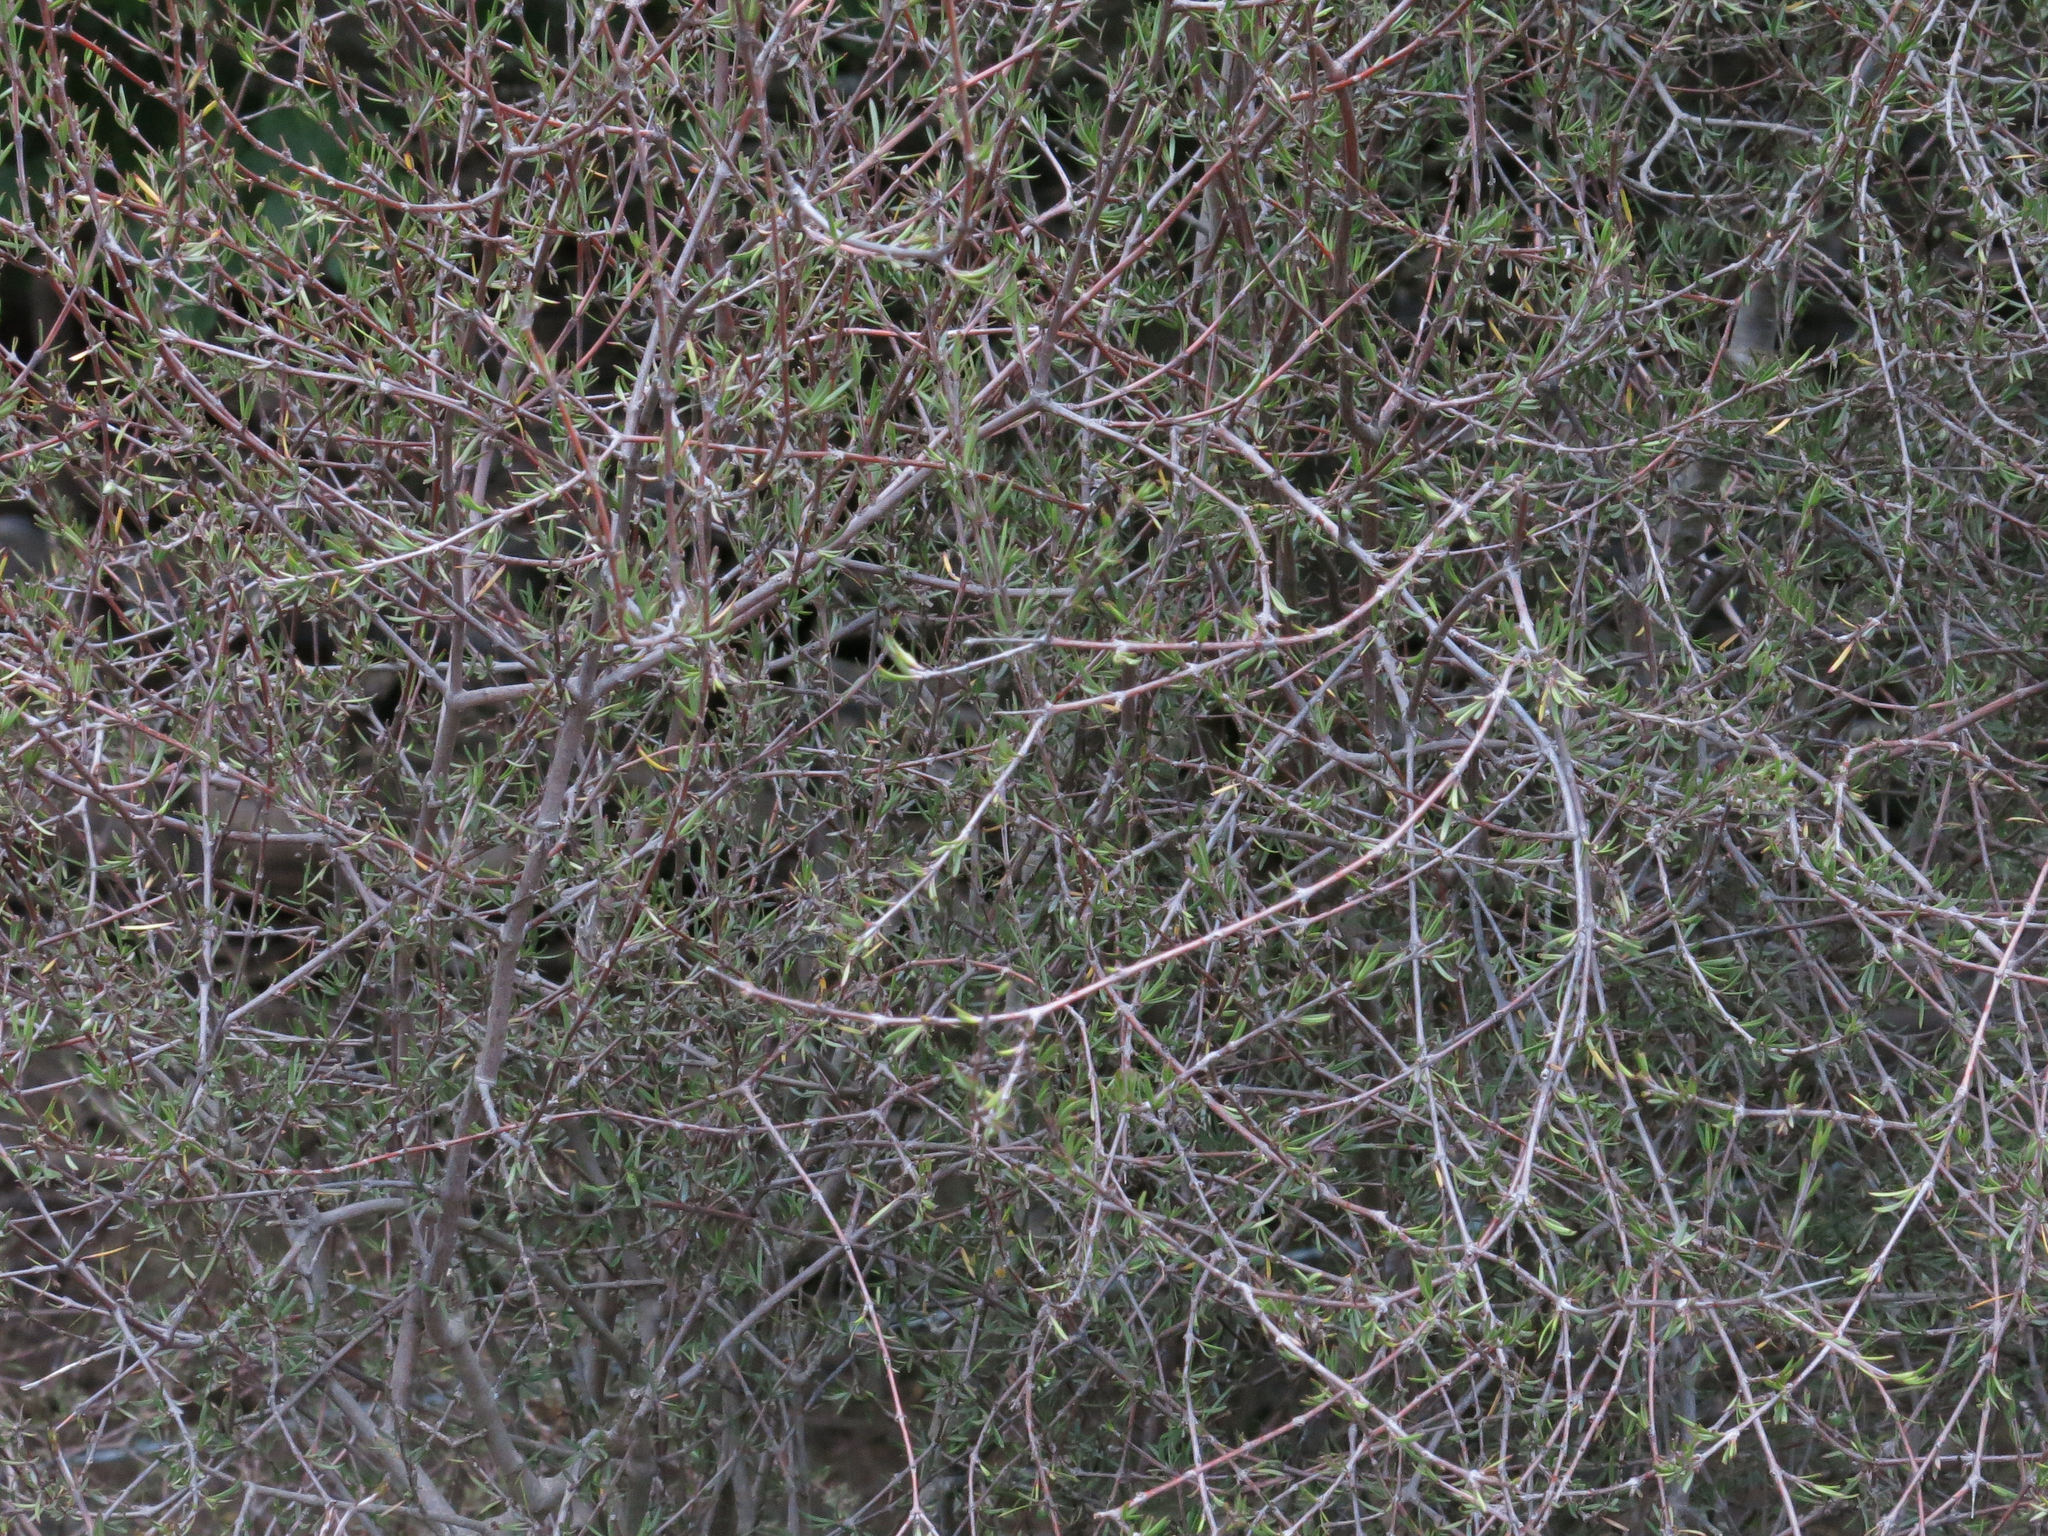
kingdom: Plantae
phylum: Tracheophyta
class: Magnoliopsida
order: Gentianales
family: Rubiaceae
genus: Coprosma
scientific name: Coprosma intertexta
